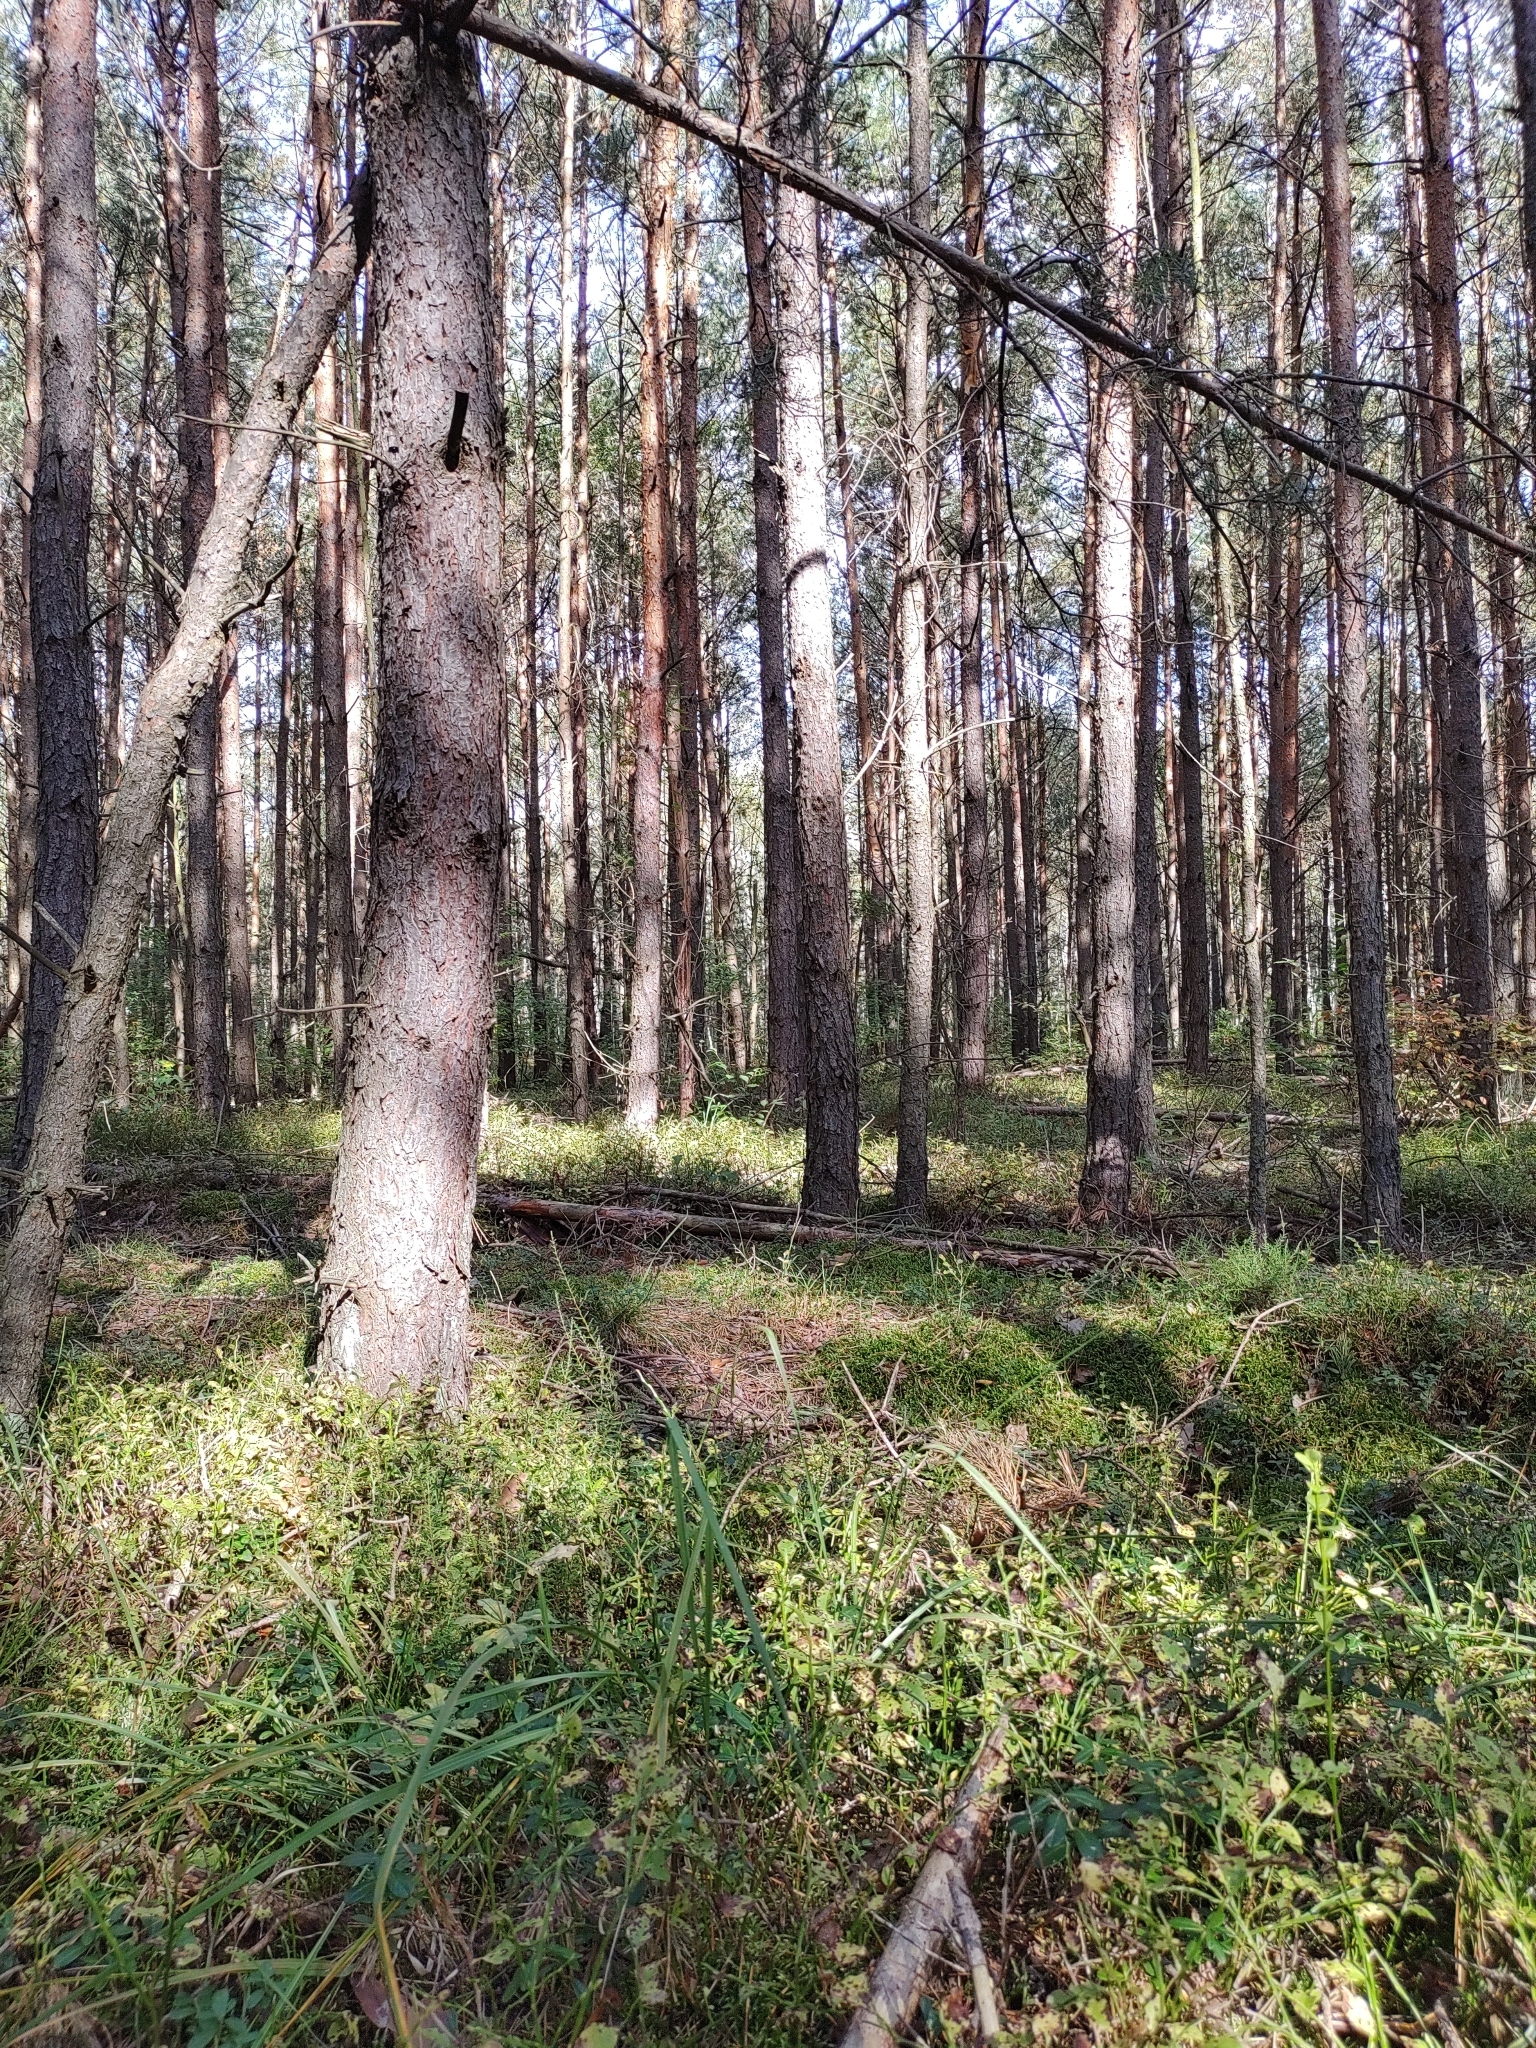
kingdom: Plantae
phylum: Bryophyta
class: Bryopsida
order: Hypnales
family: Hylocomiaceae
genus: Pleurozium
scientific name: Pleurozium schreberi
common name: Red-stemmed feather moss
